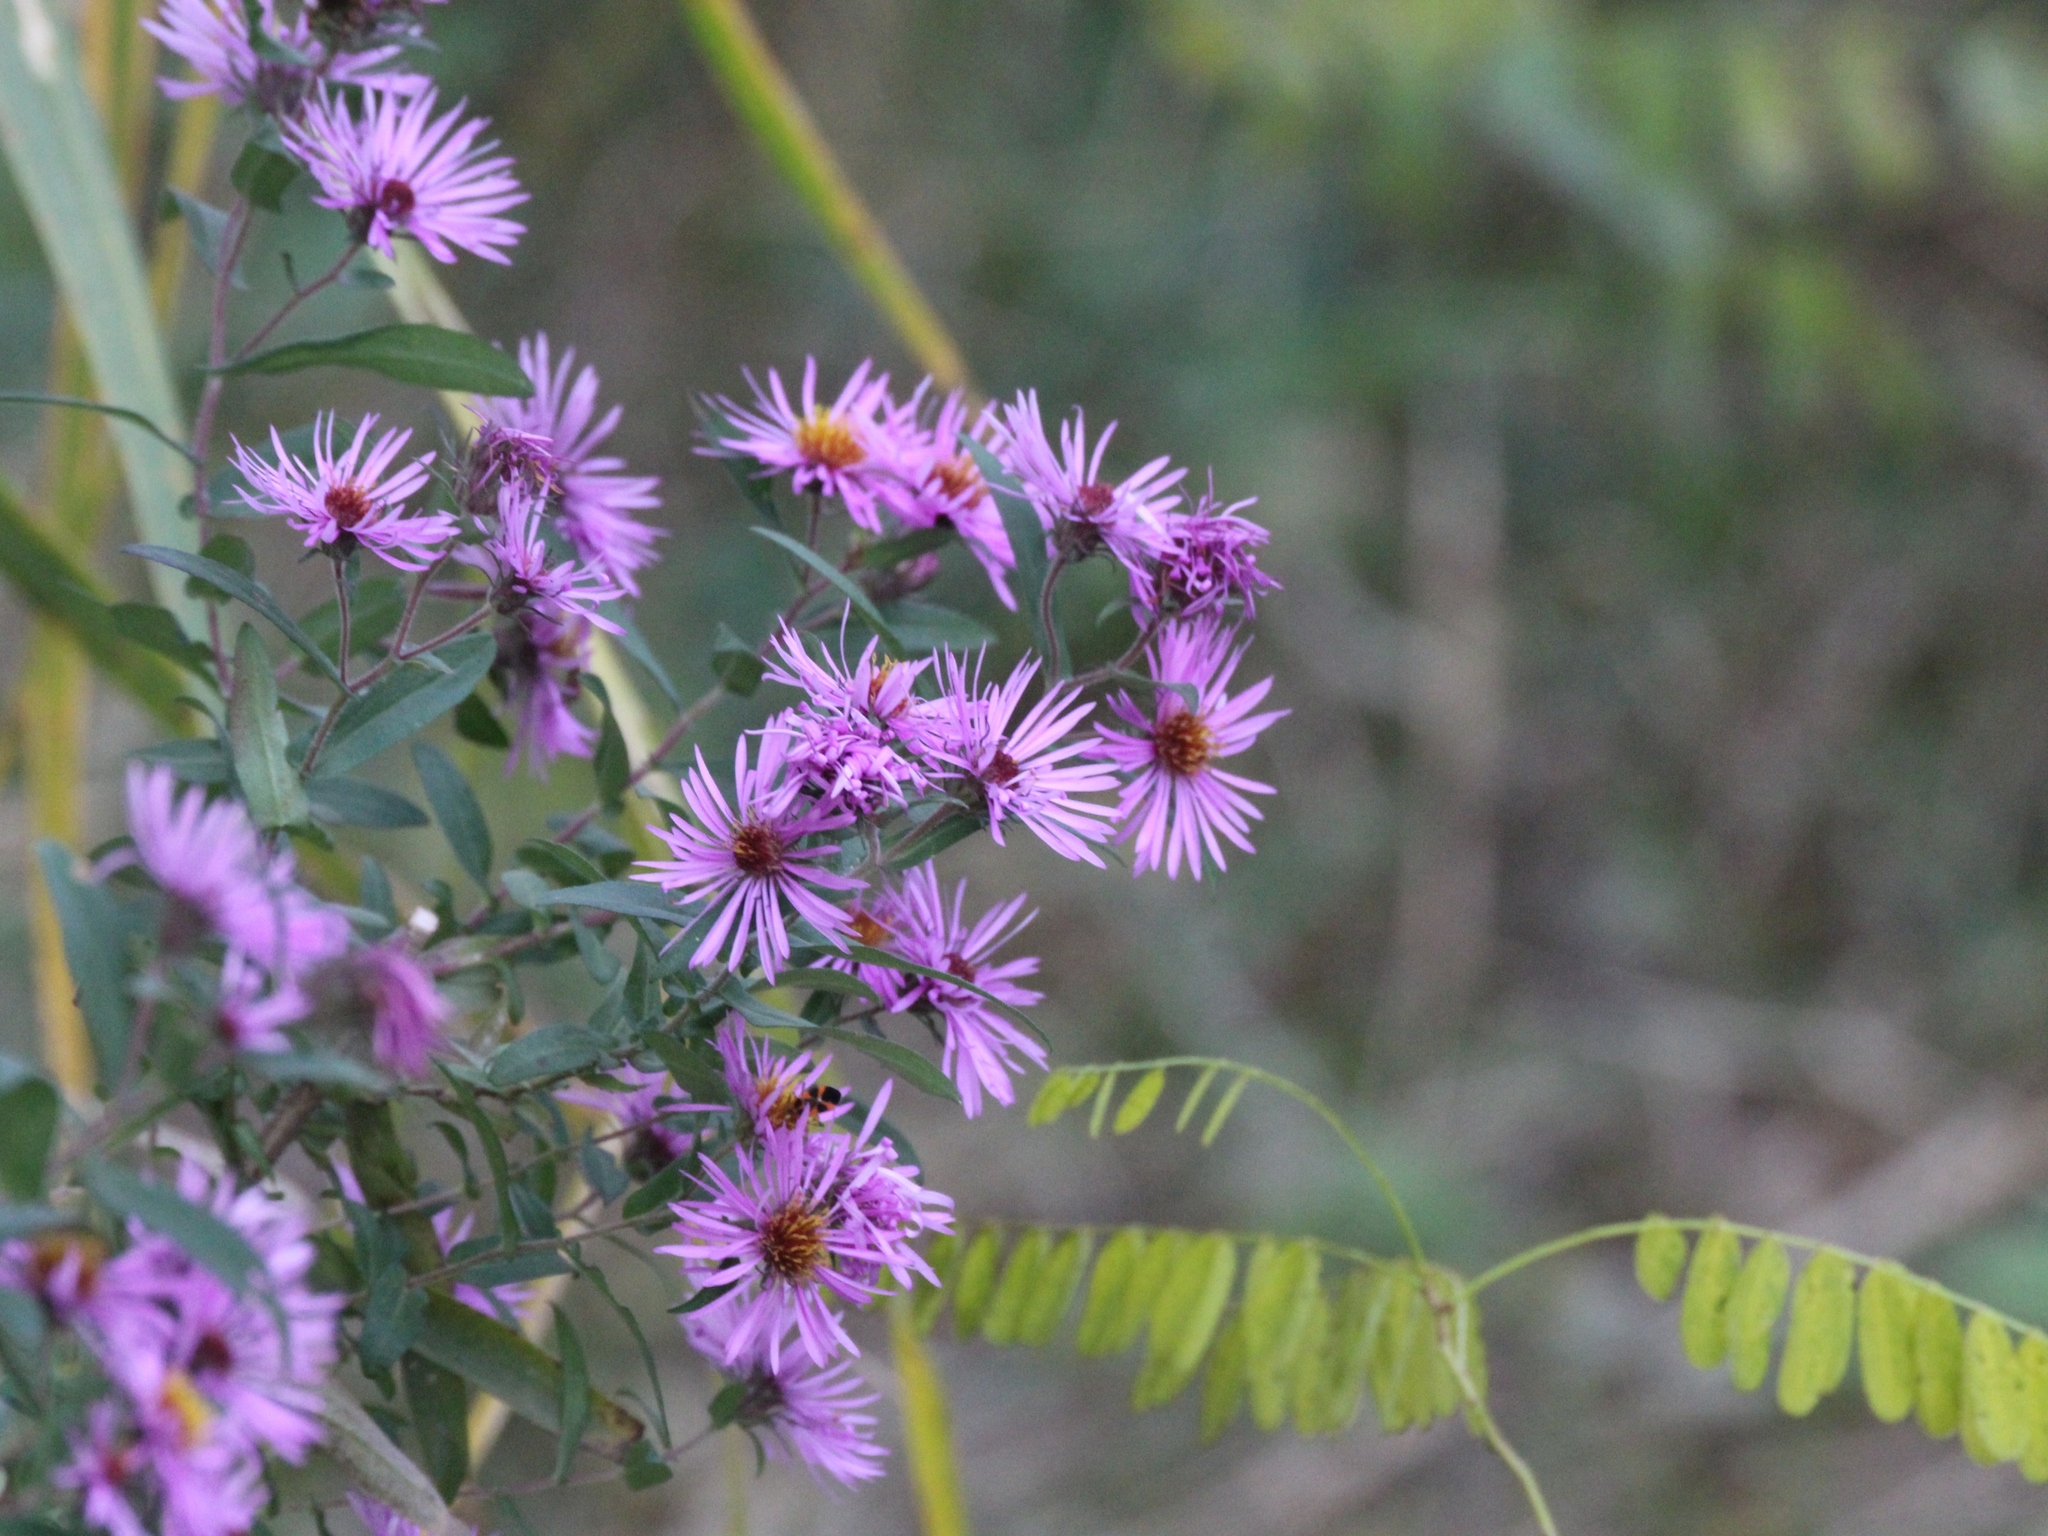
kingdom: Plantae
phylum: Tracheophyta
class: Magnoliopsida
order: Asterales
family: Asteraceae
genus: Symphyotrichum
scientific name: Symphyotrichum novae-angliae
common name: Michaelmas daisy
